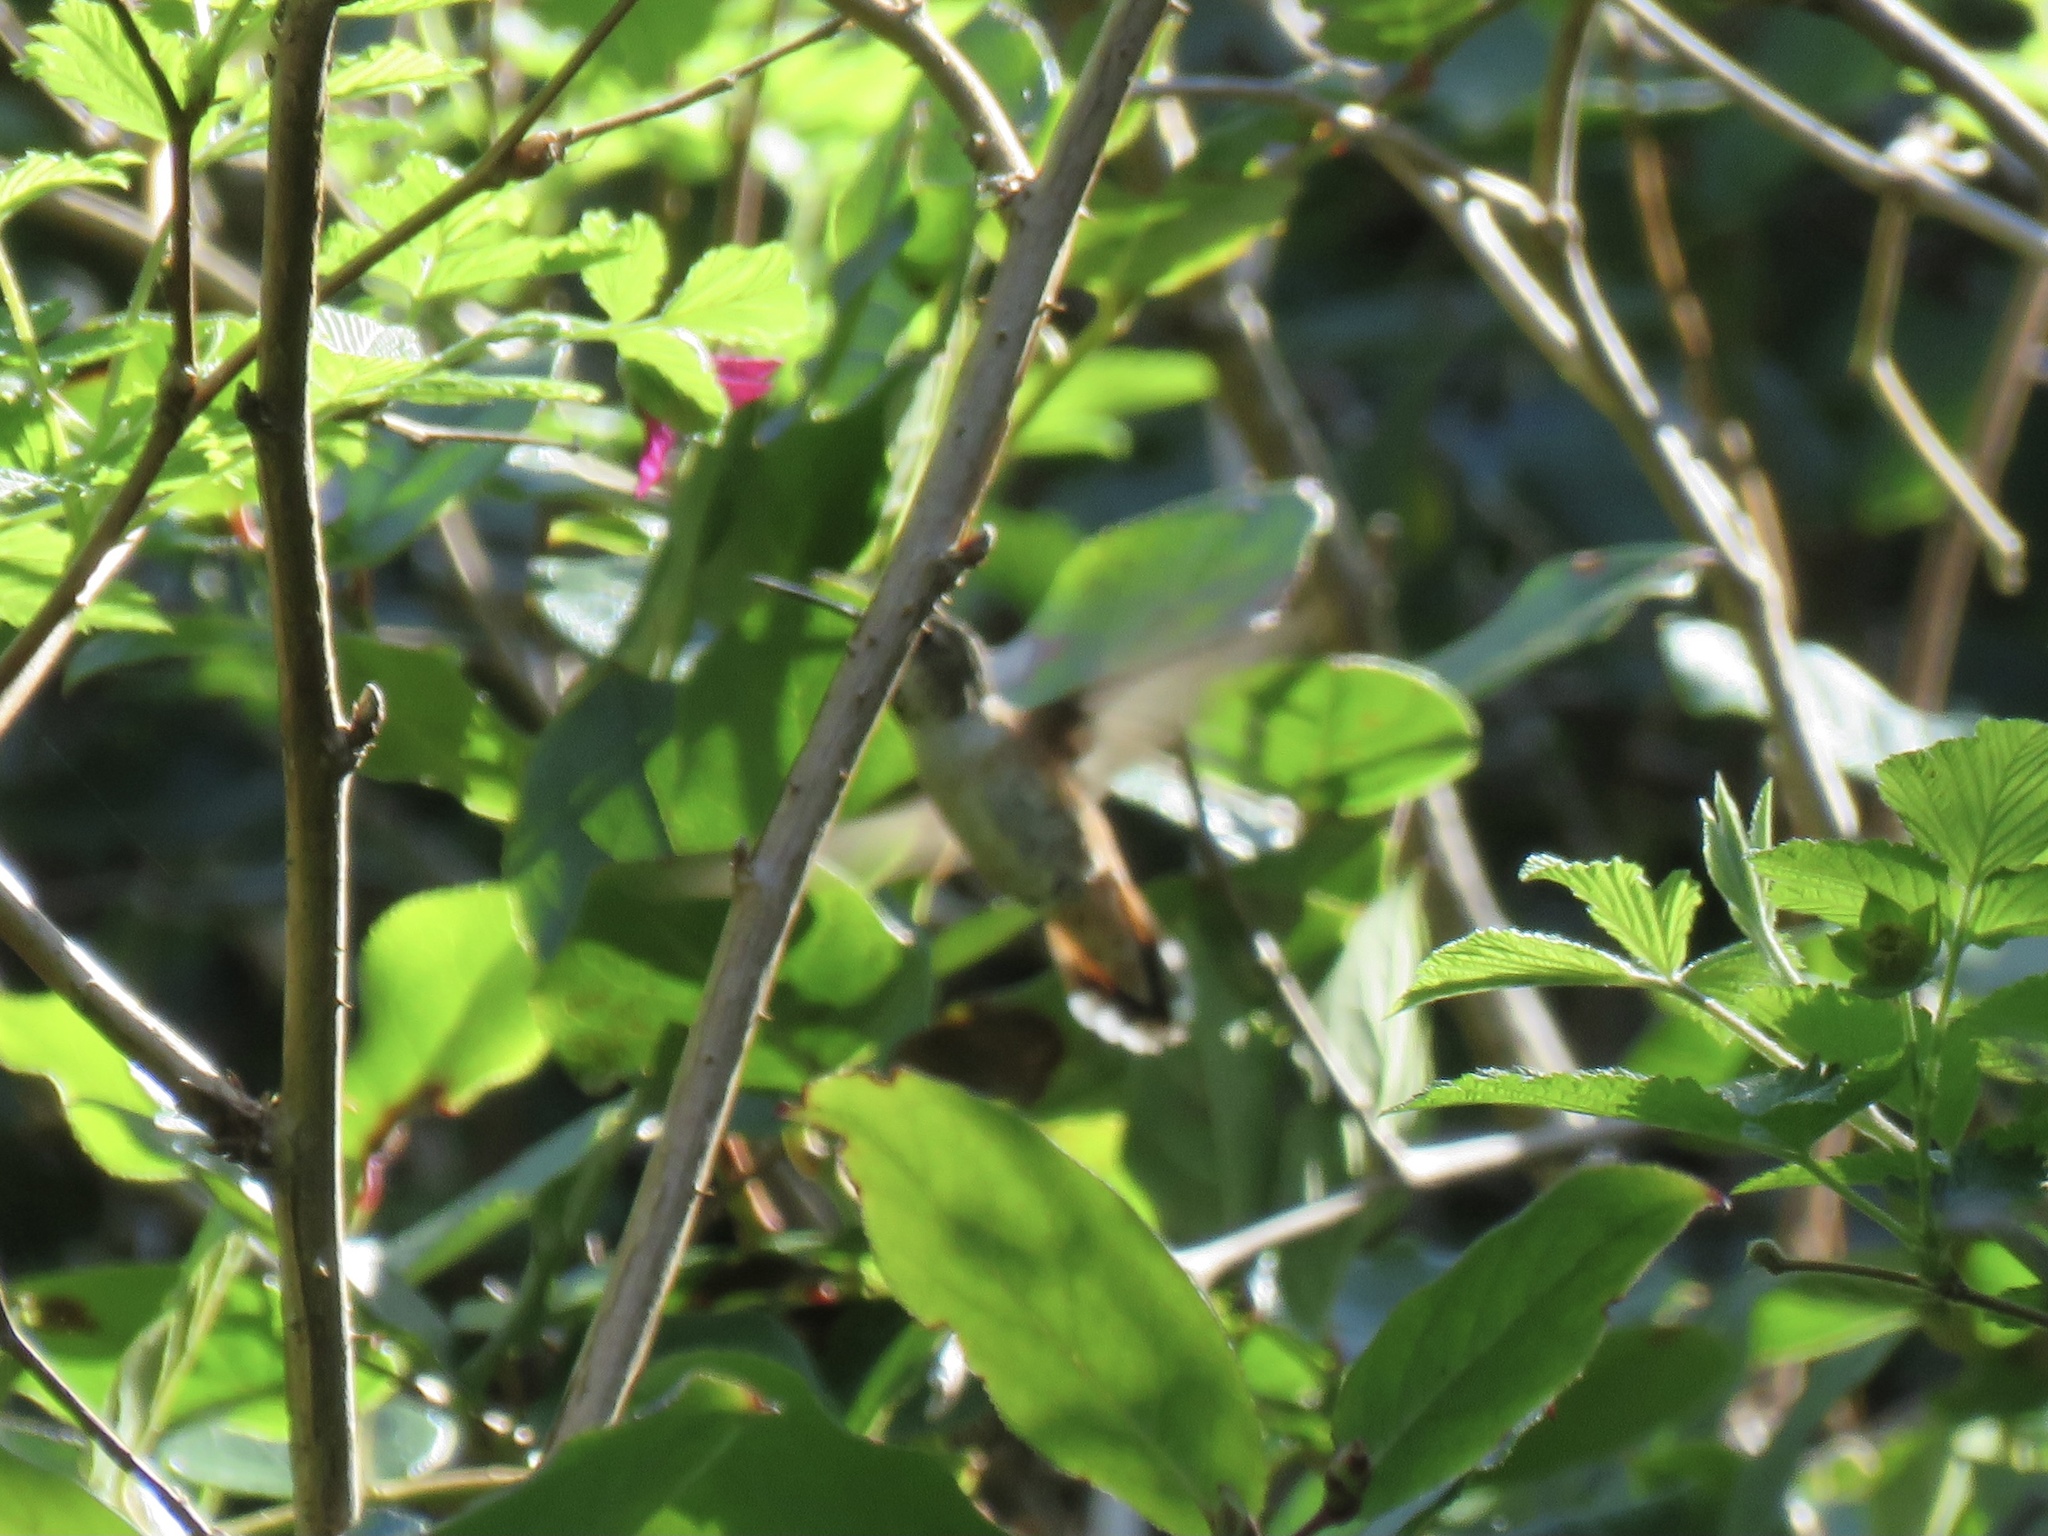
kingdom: Animalia
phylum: Chordata
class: Aves
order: Apodiformes
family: Trochilidae
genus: Selasphorus
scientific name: Selasphorus rufus
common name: Rufous hummingbird
